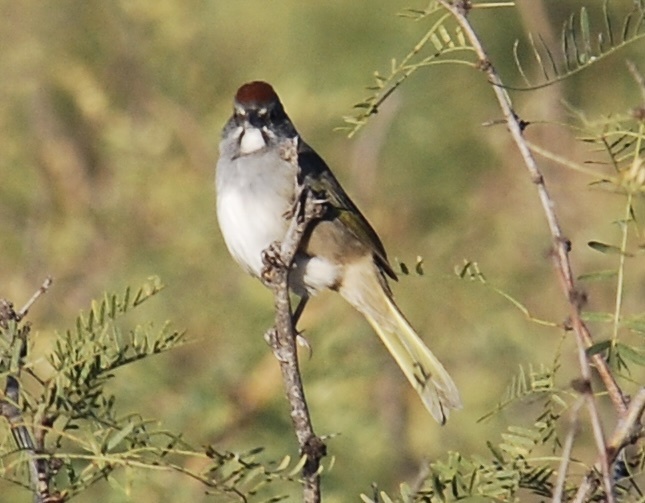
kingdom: Animalia
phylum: Chordata
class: Aves
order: Passeriformes
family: Passerellidae
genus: Pipilo
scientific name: Pipilo chlorurus
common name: Green-tailed towhee
